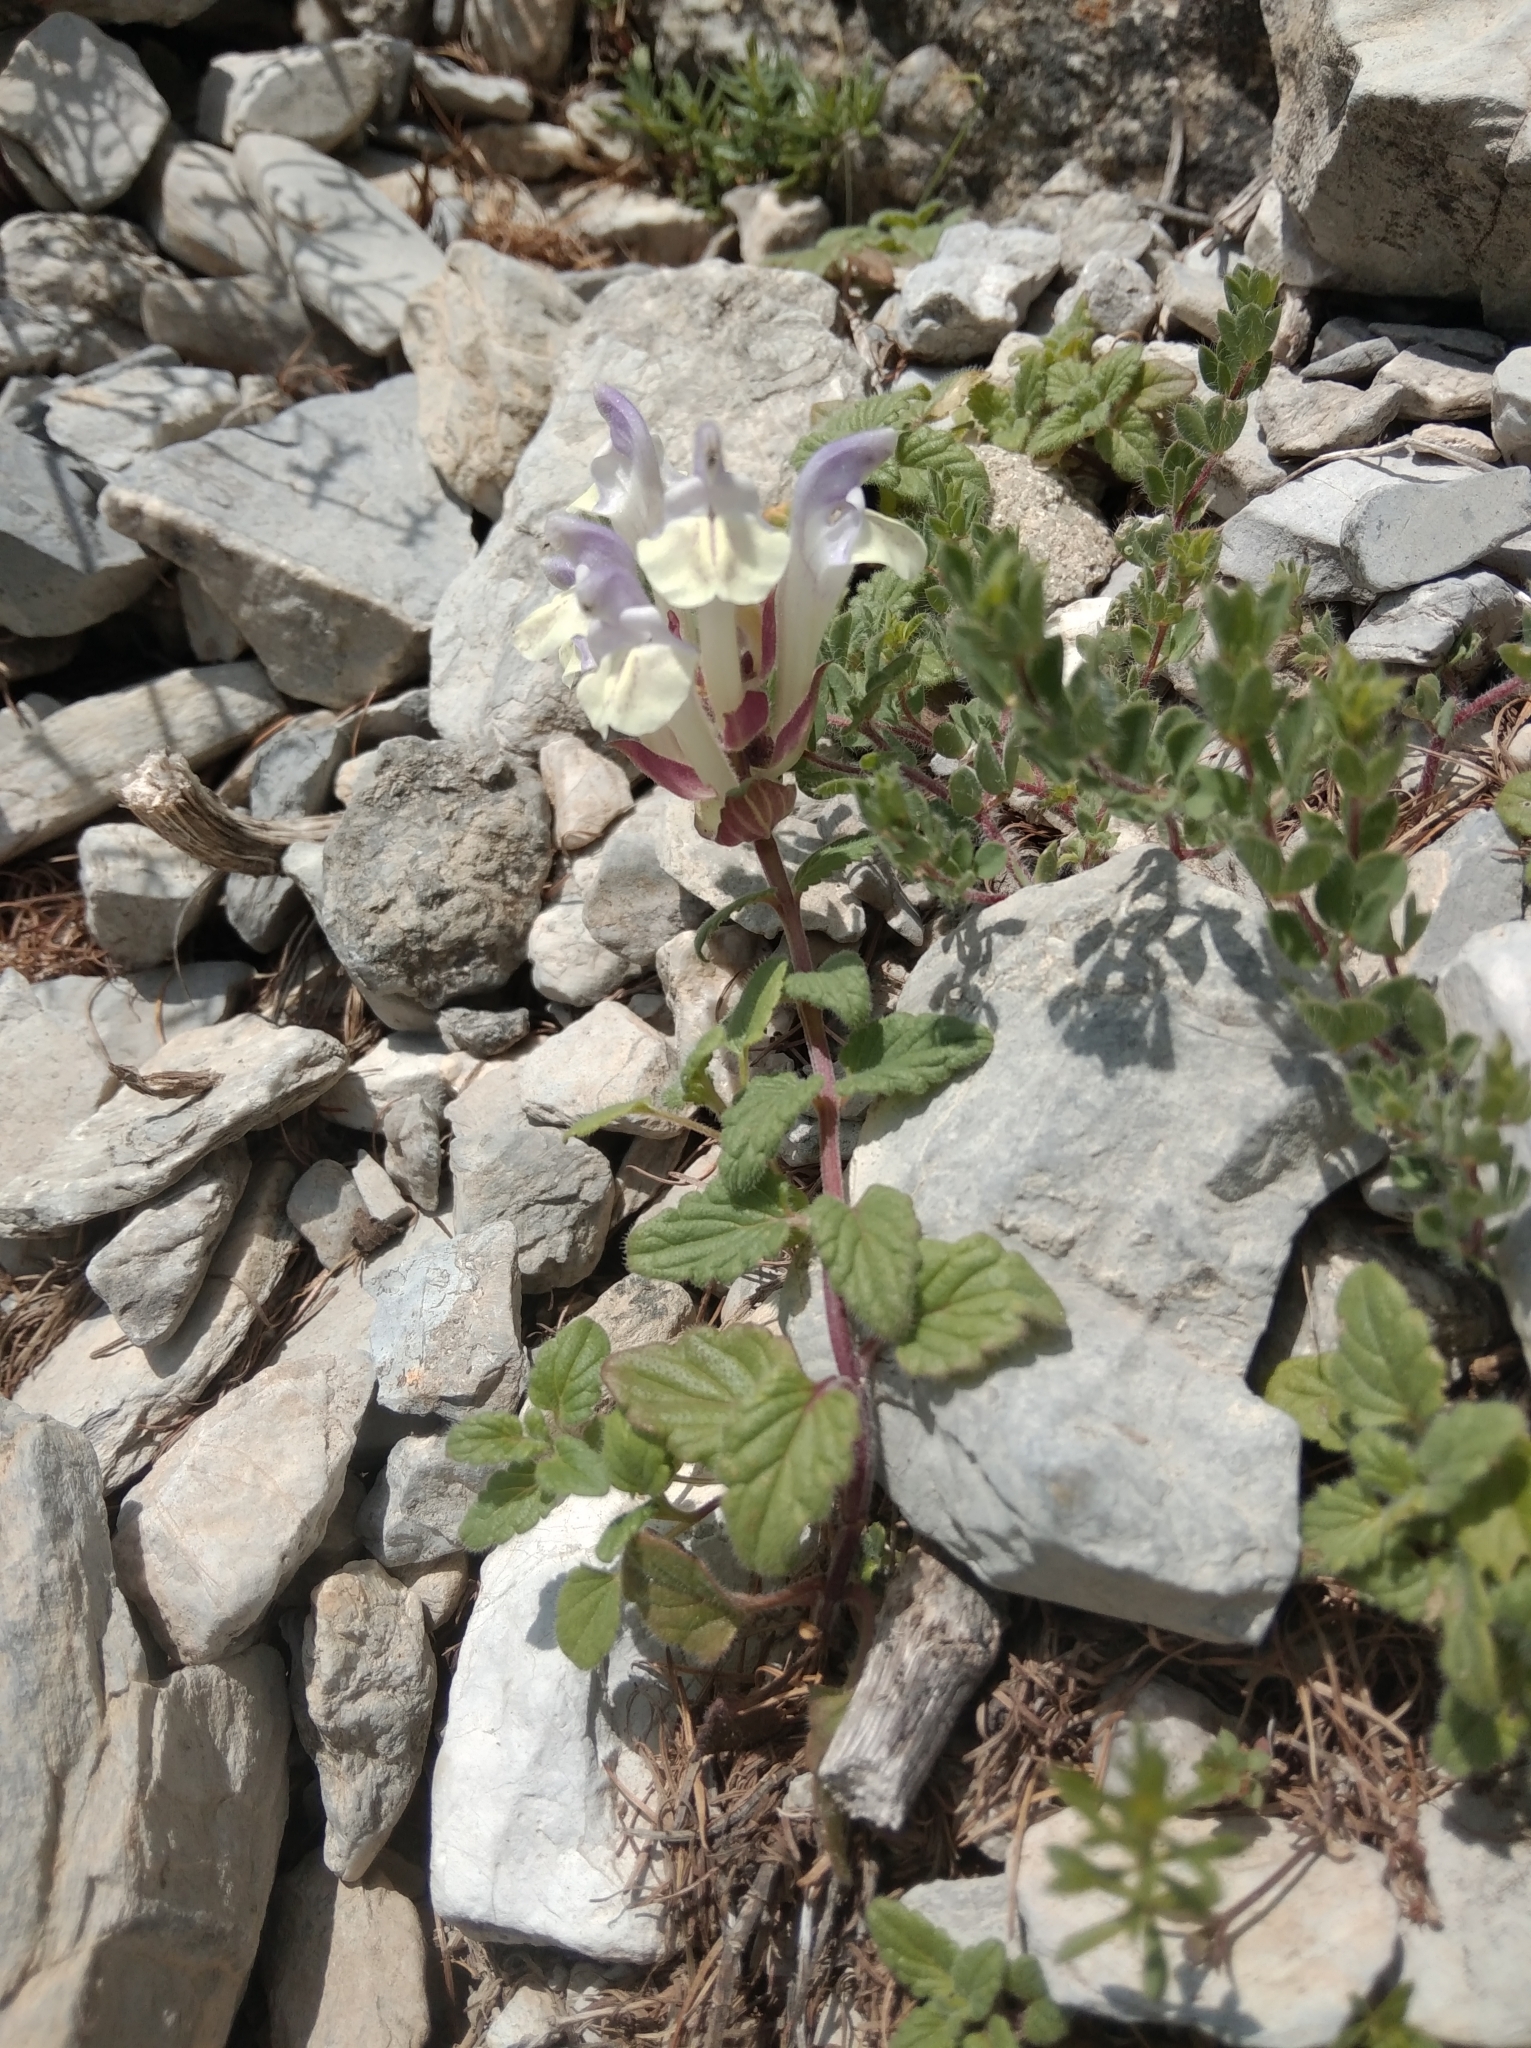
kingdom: Plantae
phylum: Tracheophyta
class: Magnoliopsida
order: Lamiales
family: Lamiaceae
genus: Scutellaria
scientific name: Scutellaria alpina
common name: Alpine scullcap
